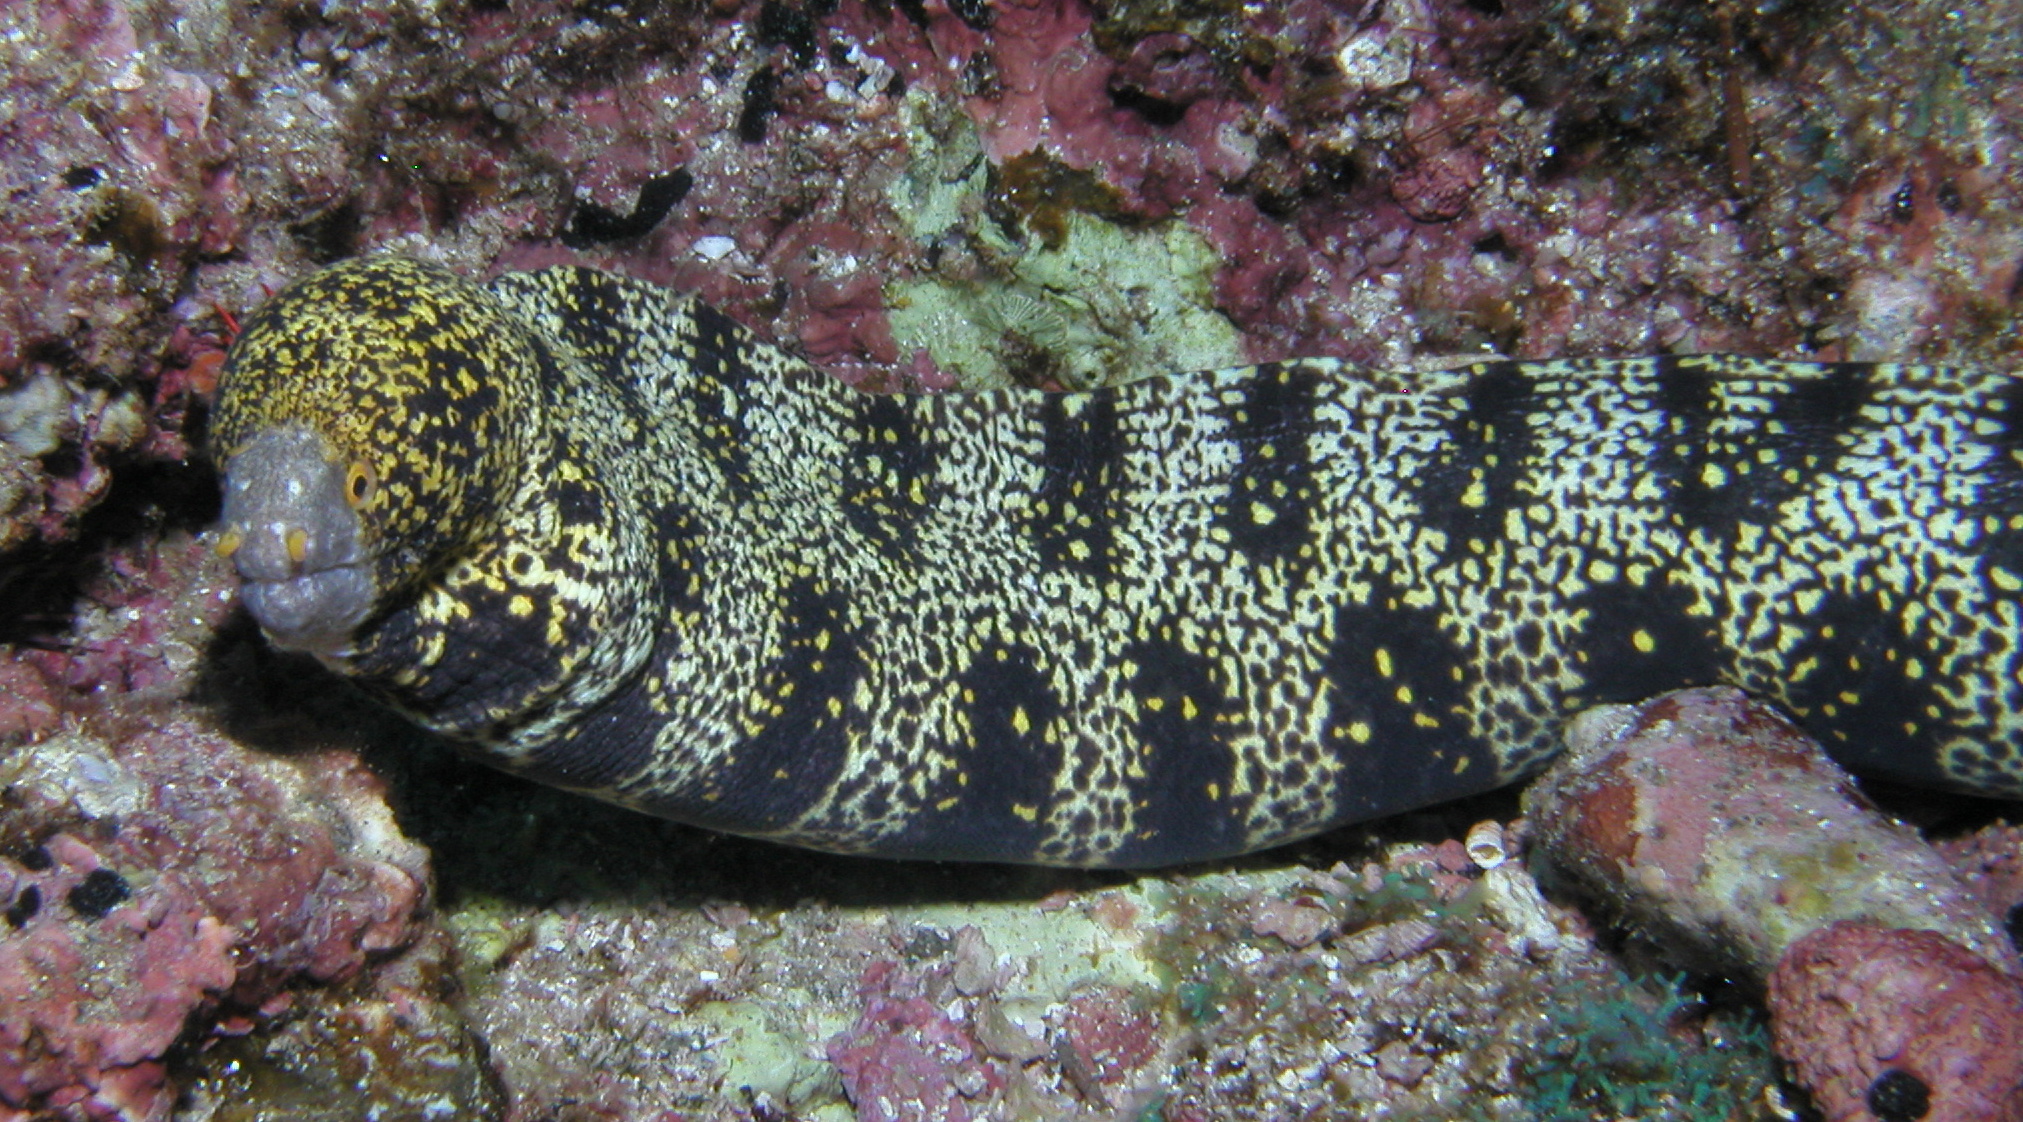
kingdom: Animalia
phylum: Chordata
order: Anguilliformes
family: Muraenidae
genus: Echidna
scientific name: Echidna nebulosa
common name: Snowflake moray
